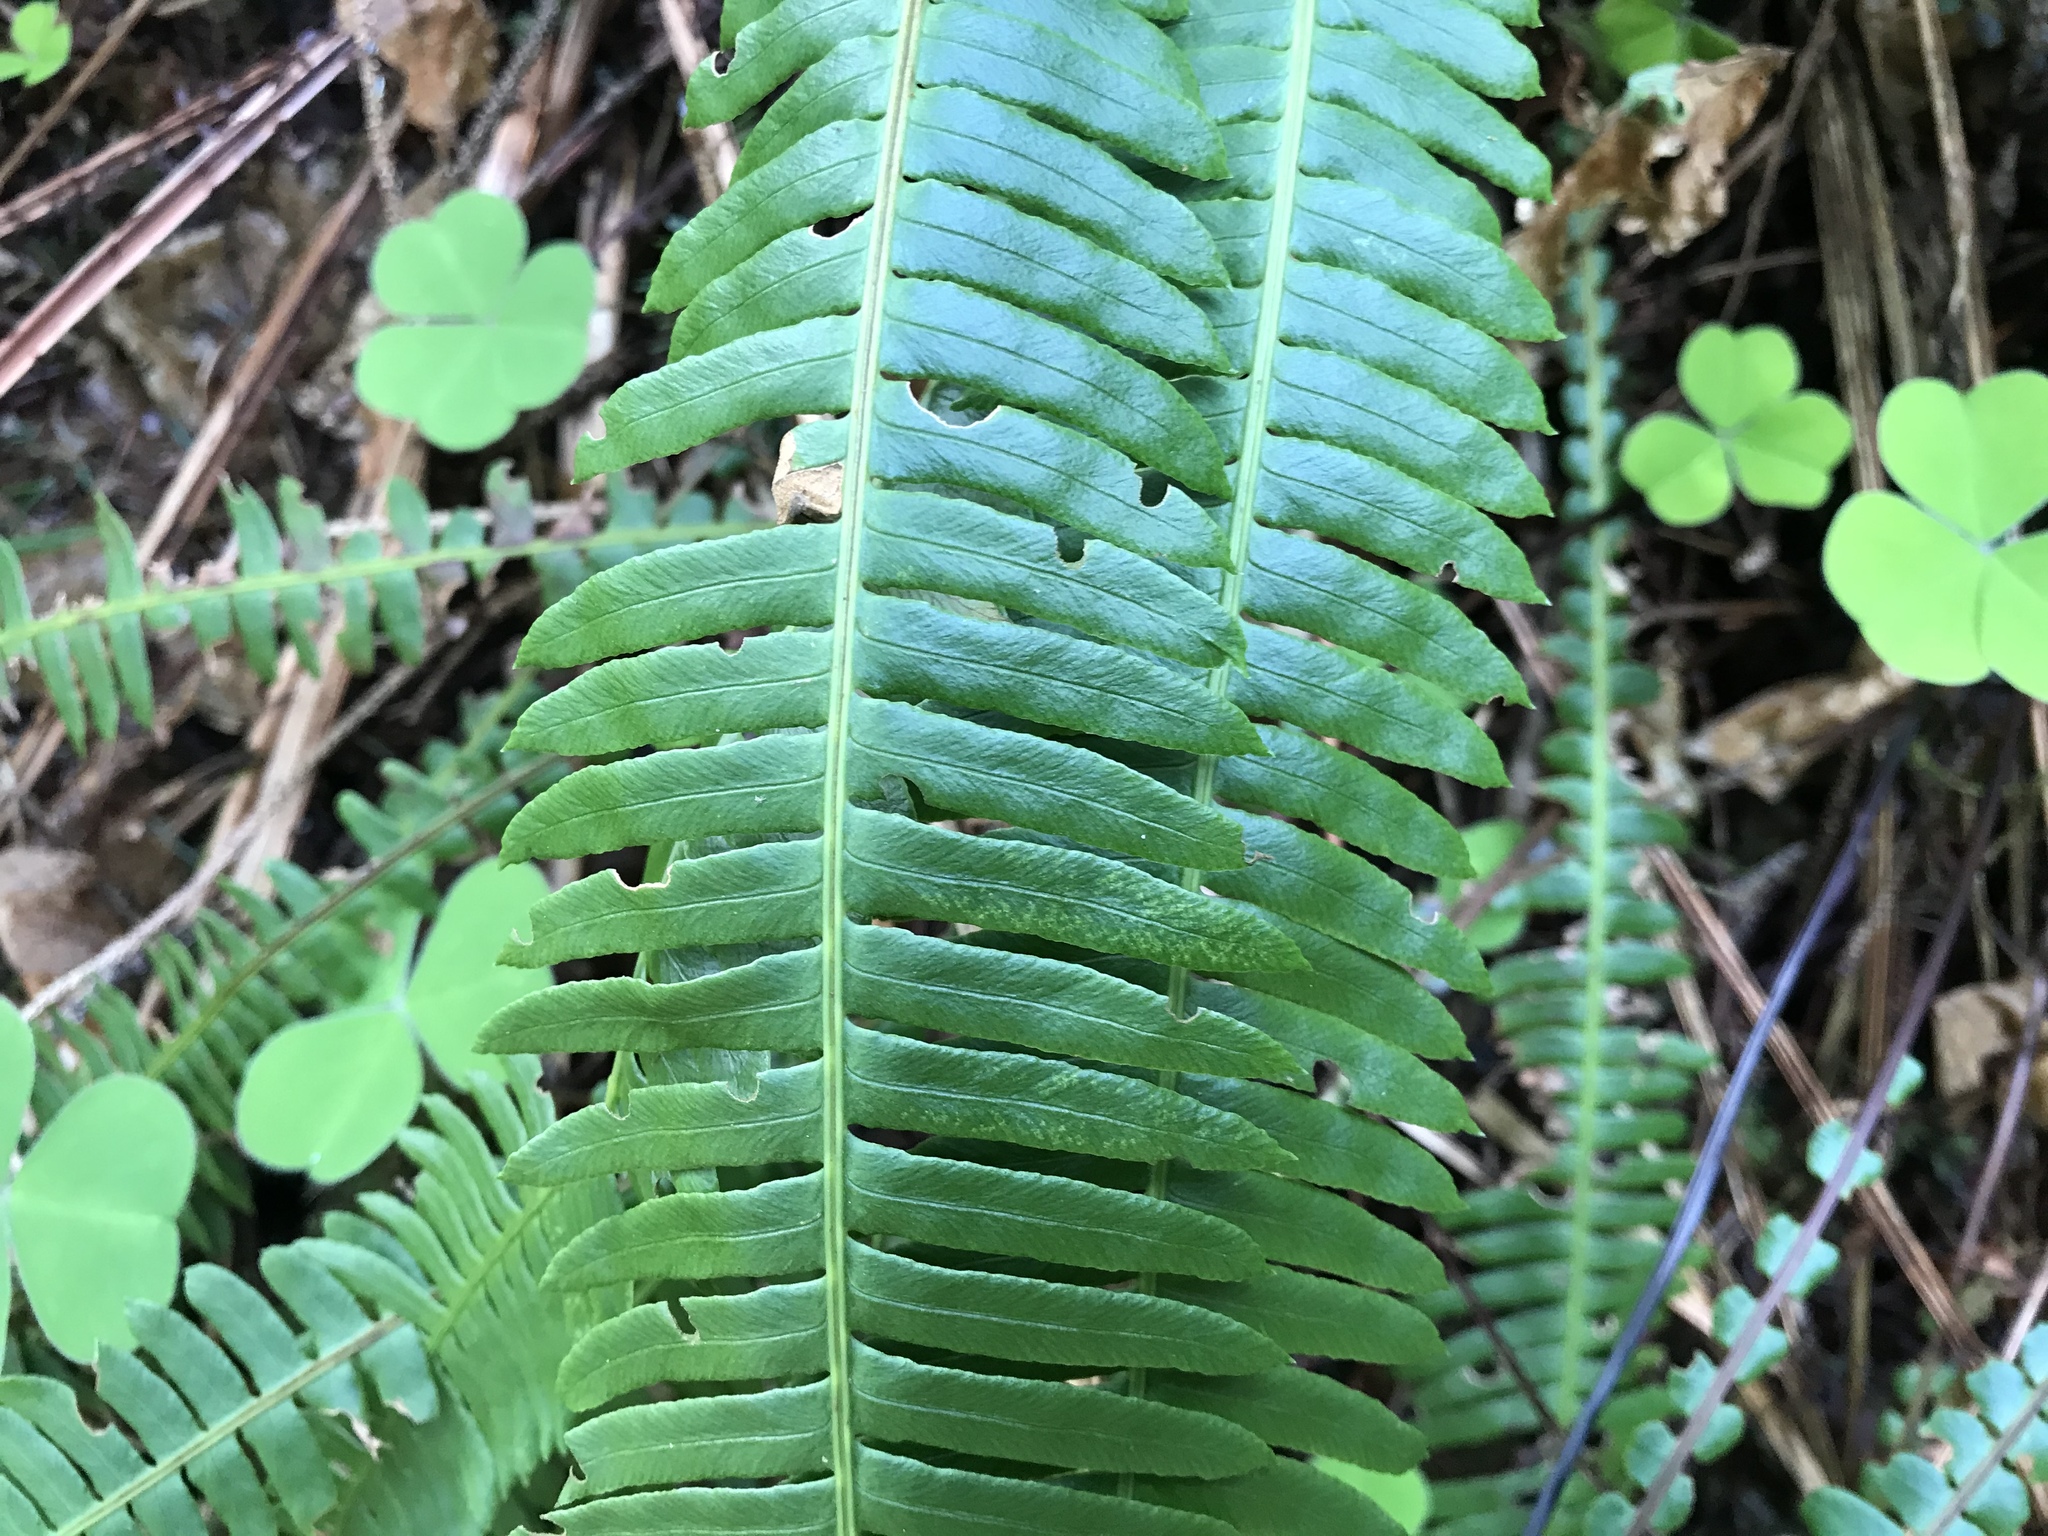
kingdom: Plantae
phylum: Tracheophyta
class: Polypodiopsida
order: Polypodiales
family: Blechnaceae
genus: Struthiopteris
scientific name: Struthiopteris spicant
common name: Deer fern
